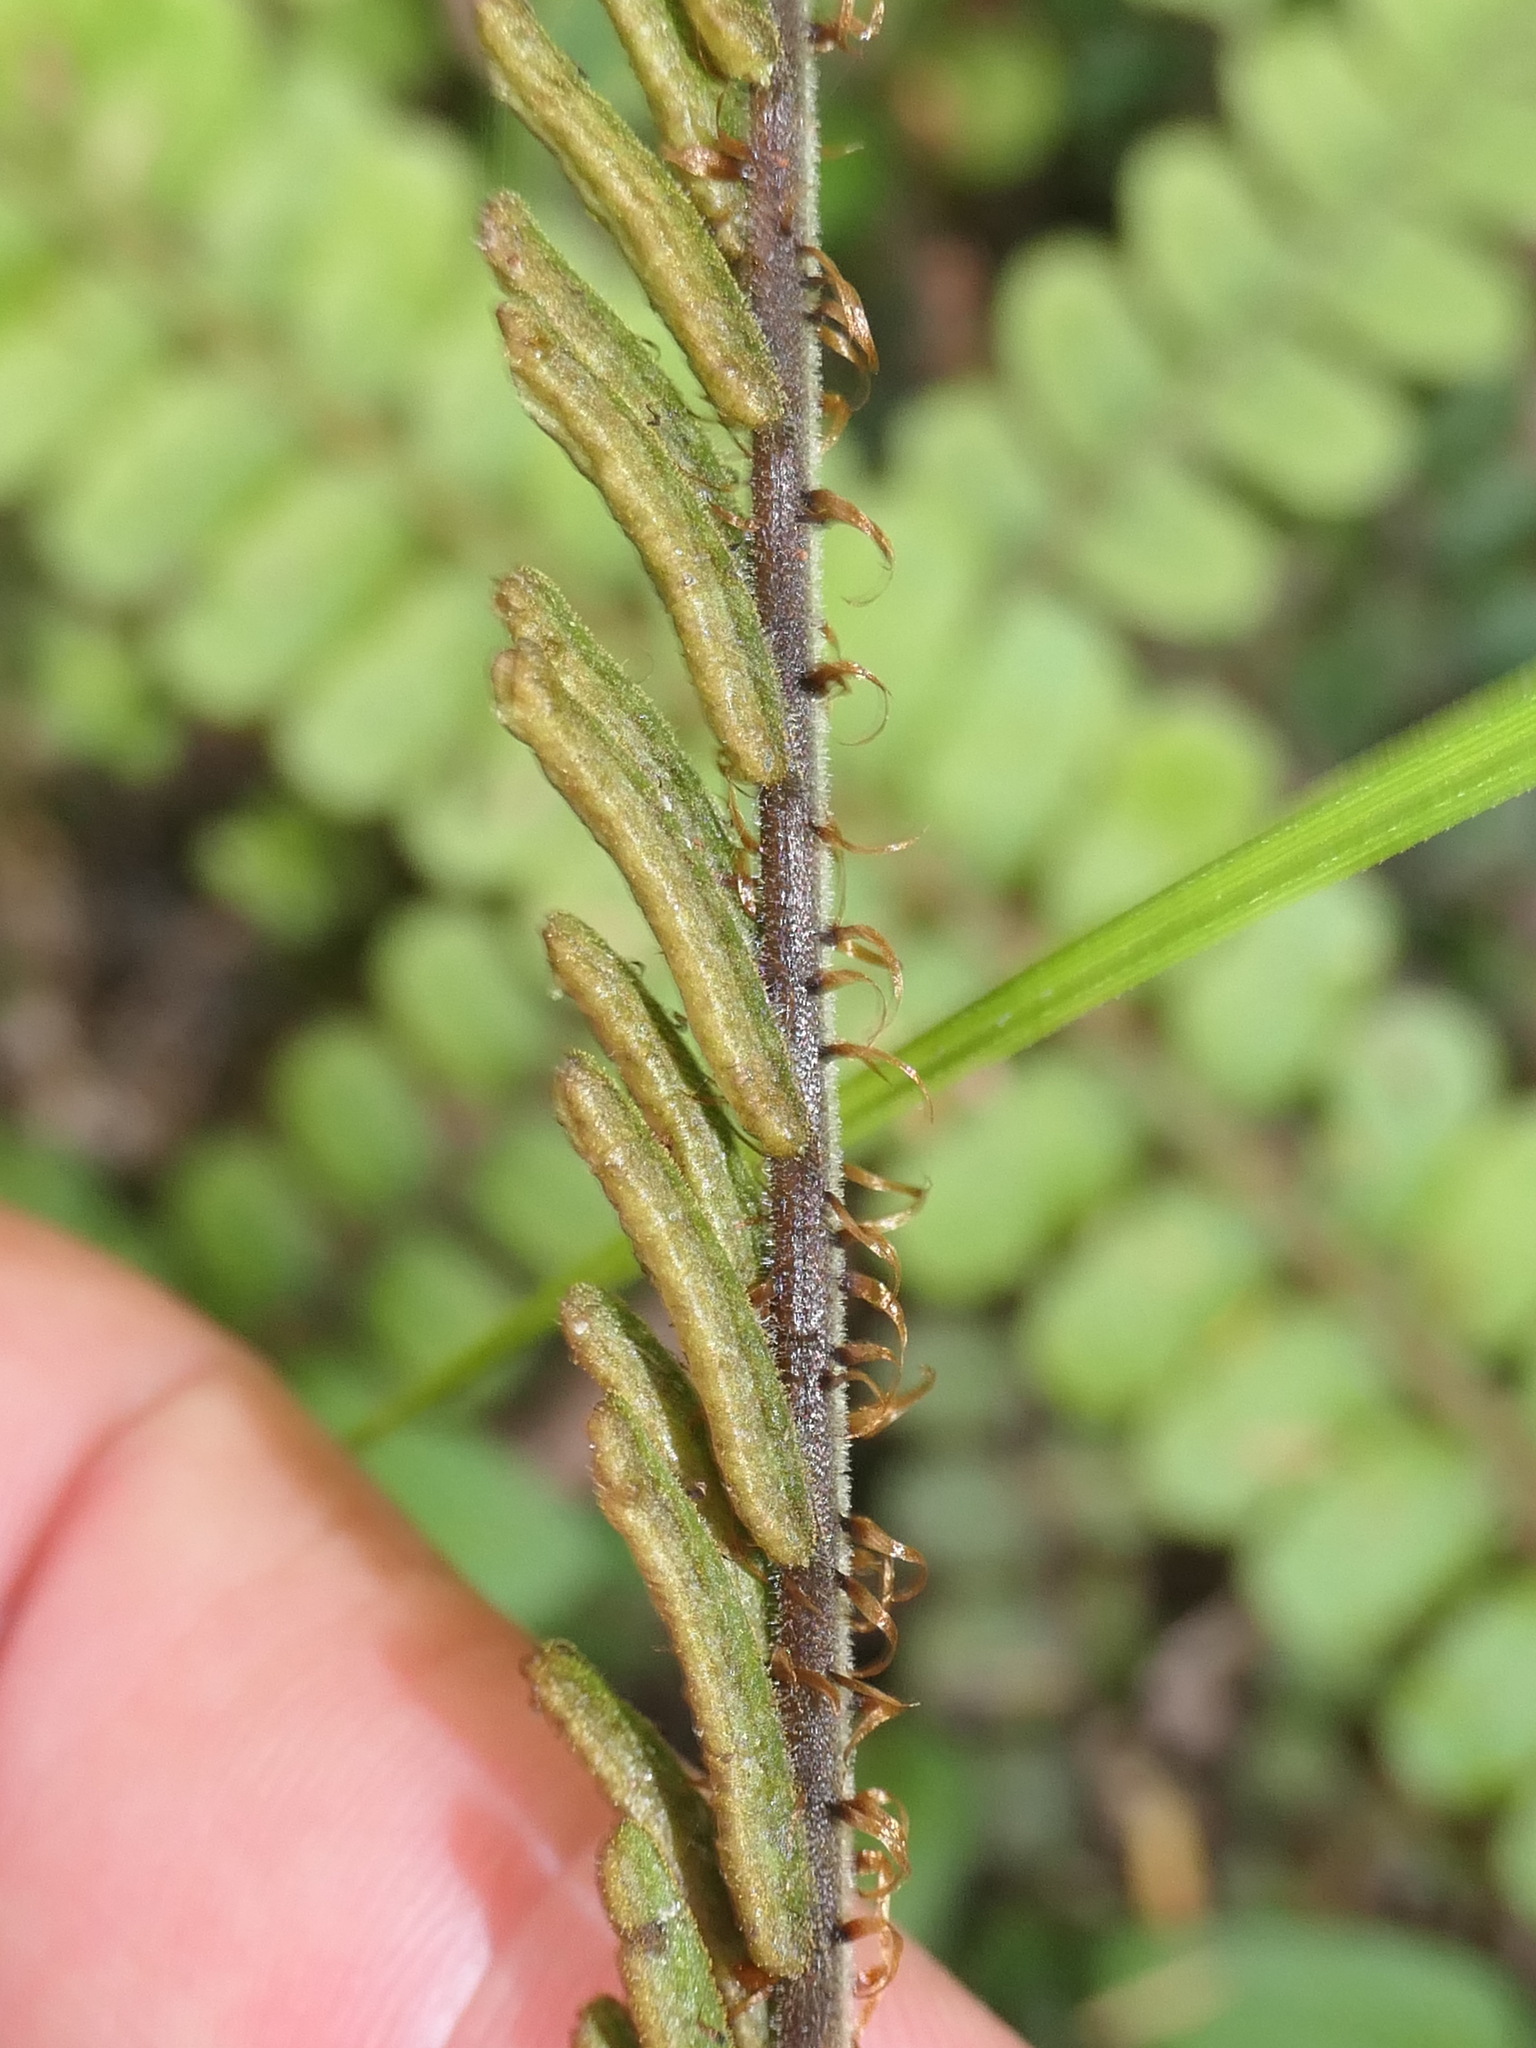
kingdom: Plantae
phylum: Tracheophyta
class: Polypodiopsida
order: Polypodiales
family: Blechnaceae
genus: Cranfillia
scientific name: Cranfillia fluviatilis
